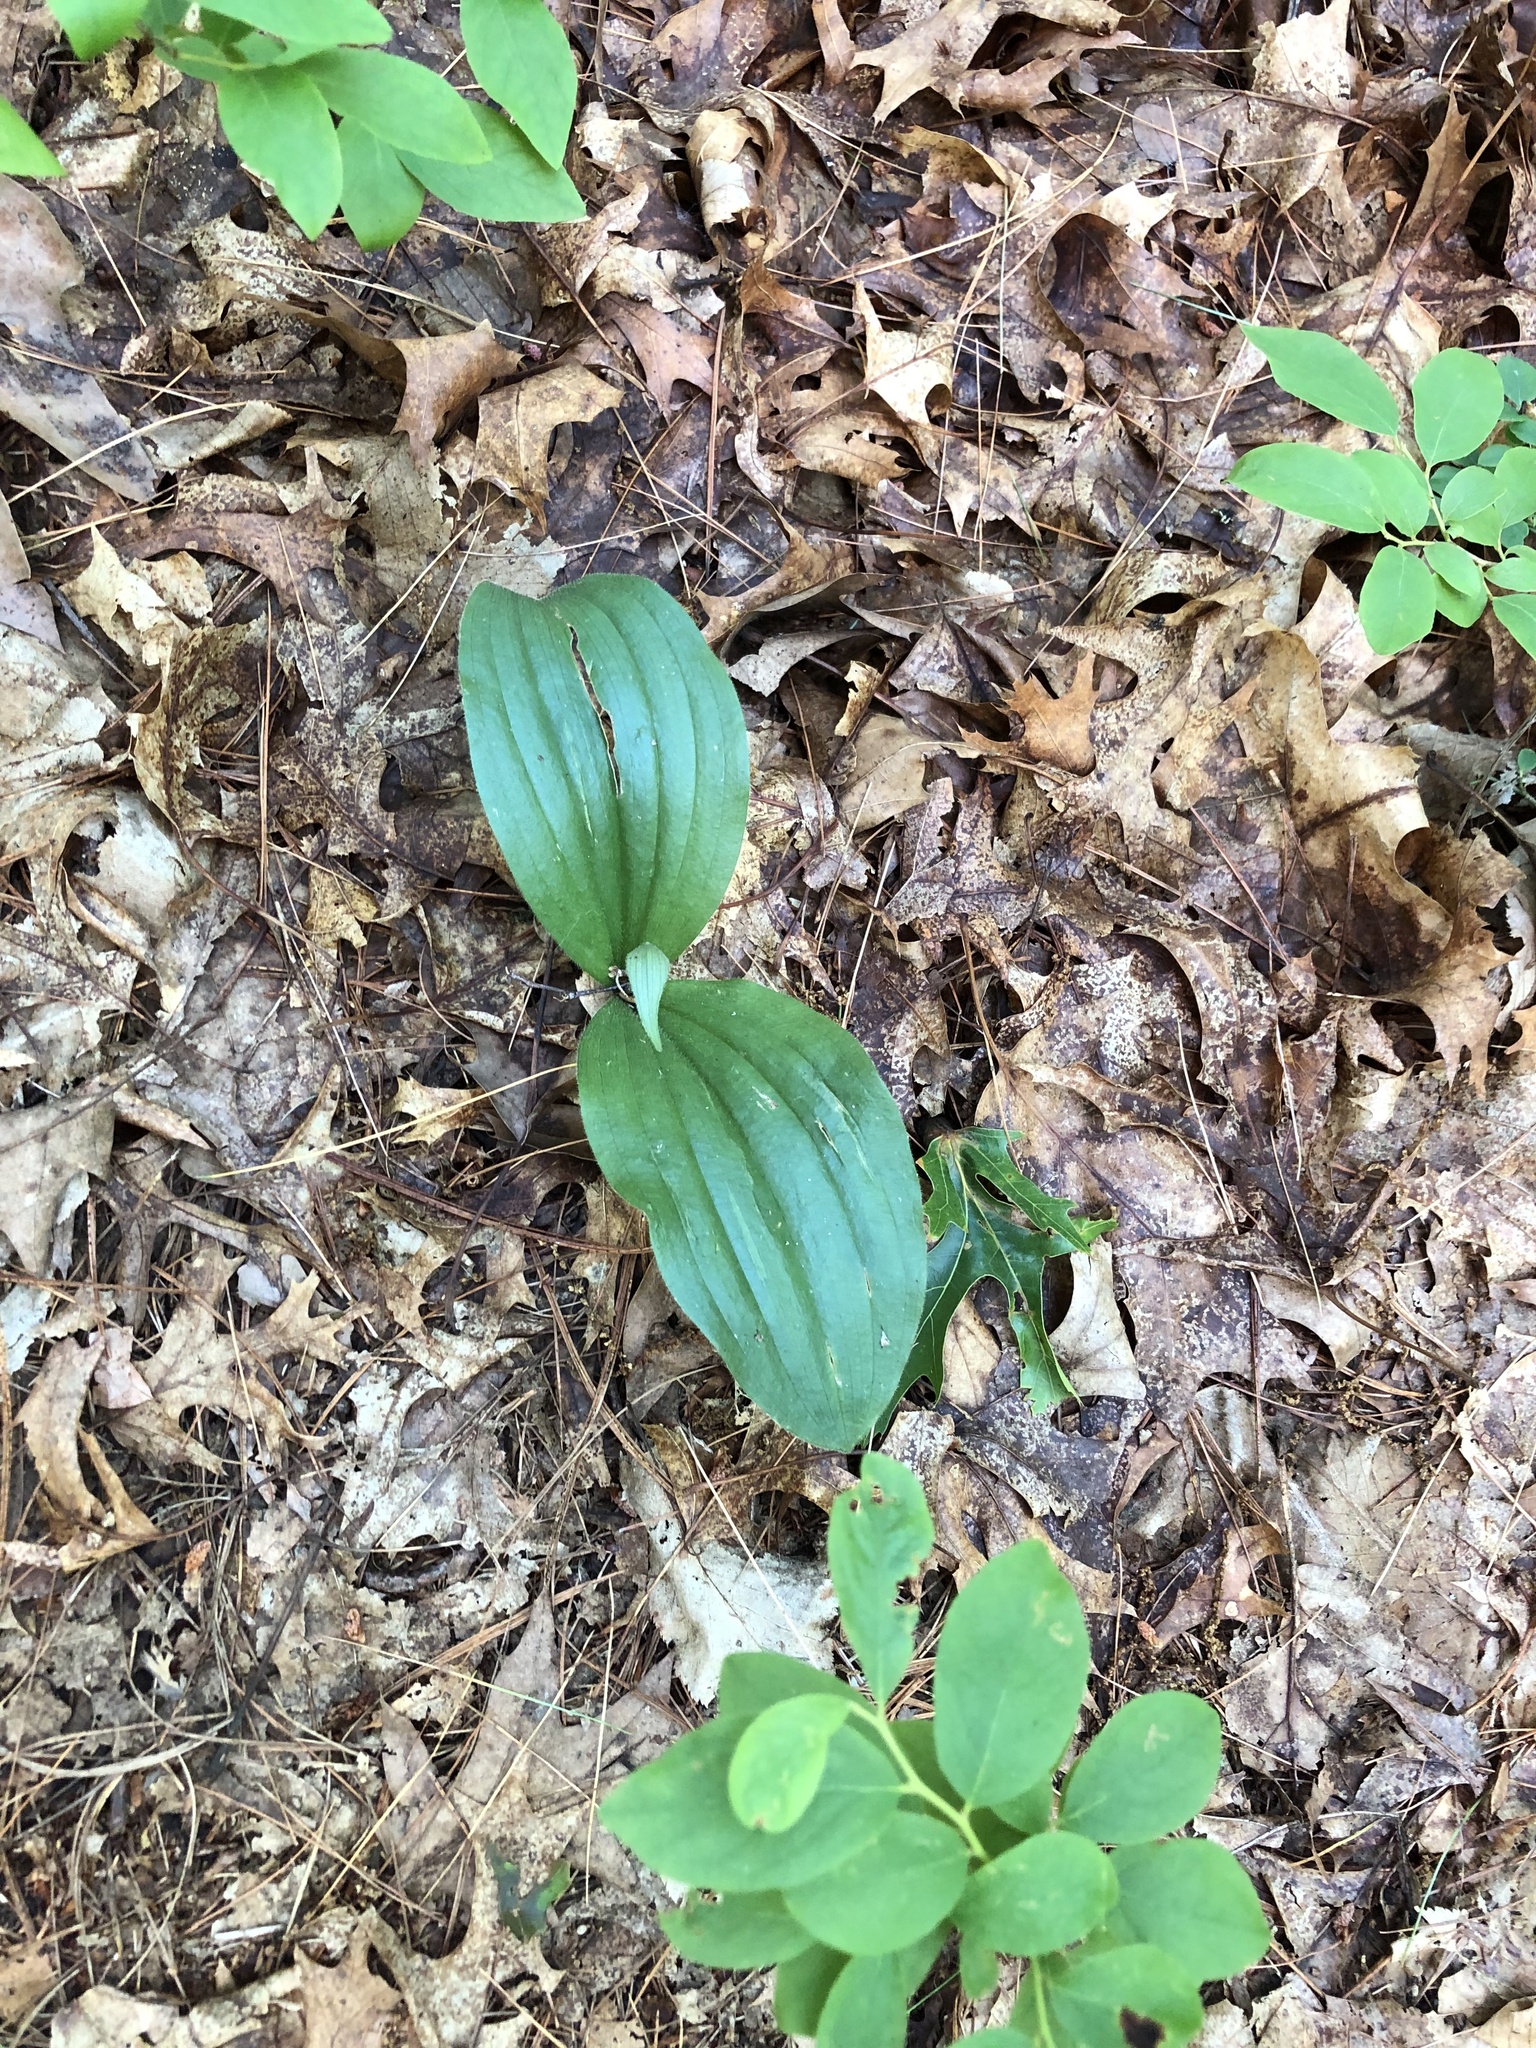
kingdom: Plantae
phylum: Tracheophyta
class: Liliopsida
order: Asparagales
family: Orchidaceae
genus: Cypripedium
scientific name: Cypripedium acaule
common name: Pink lady's-slipper
